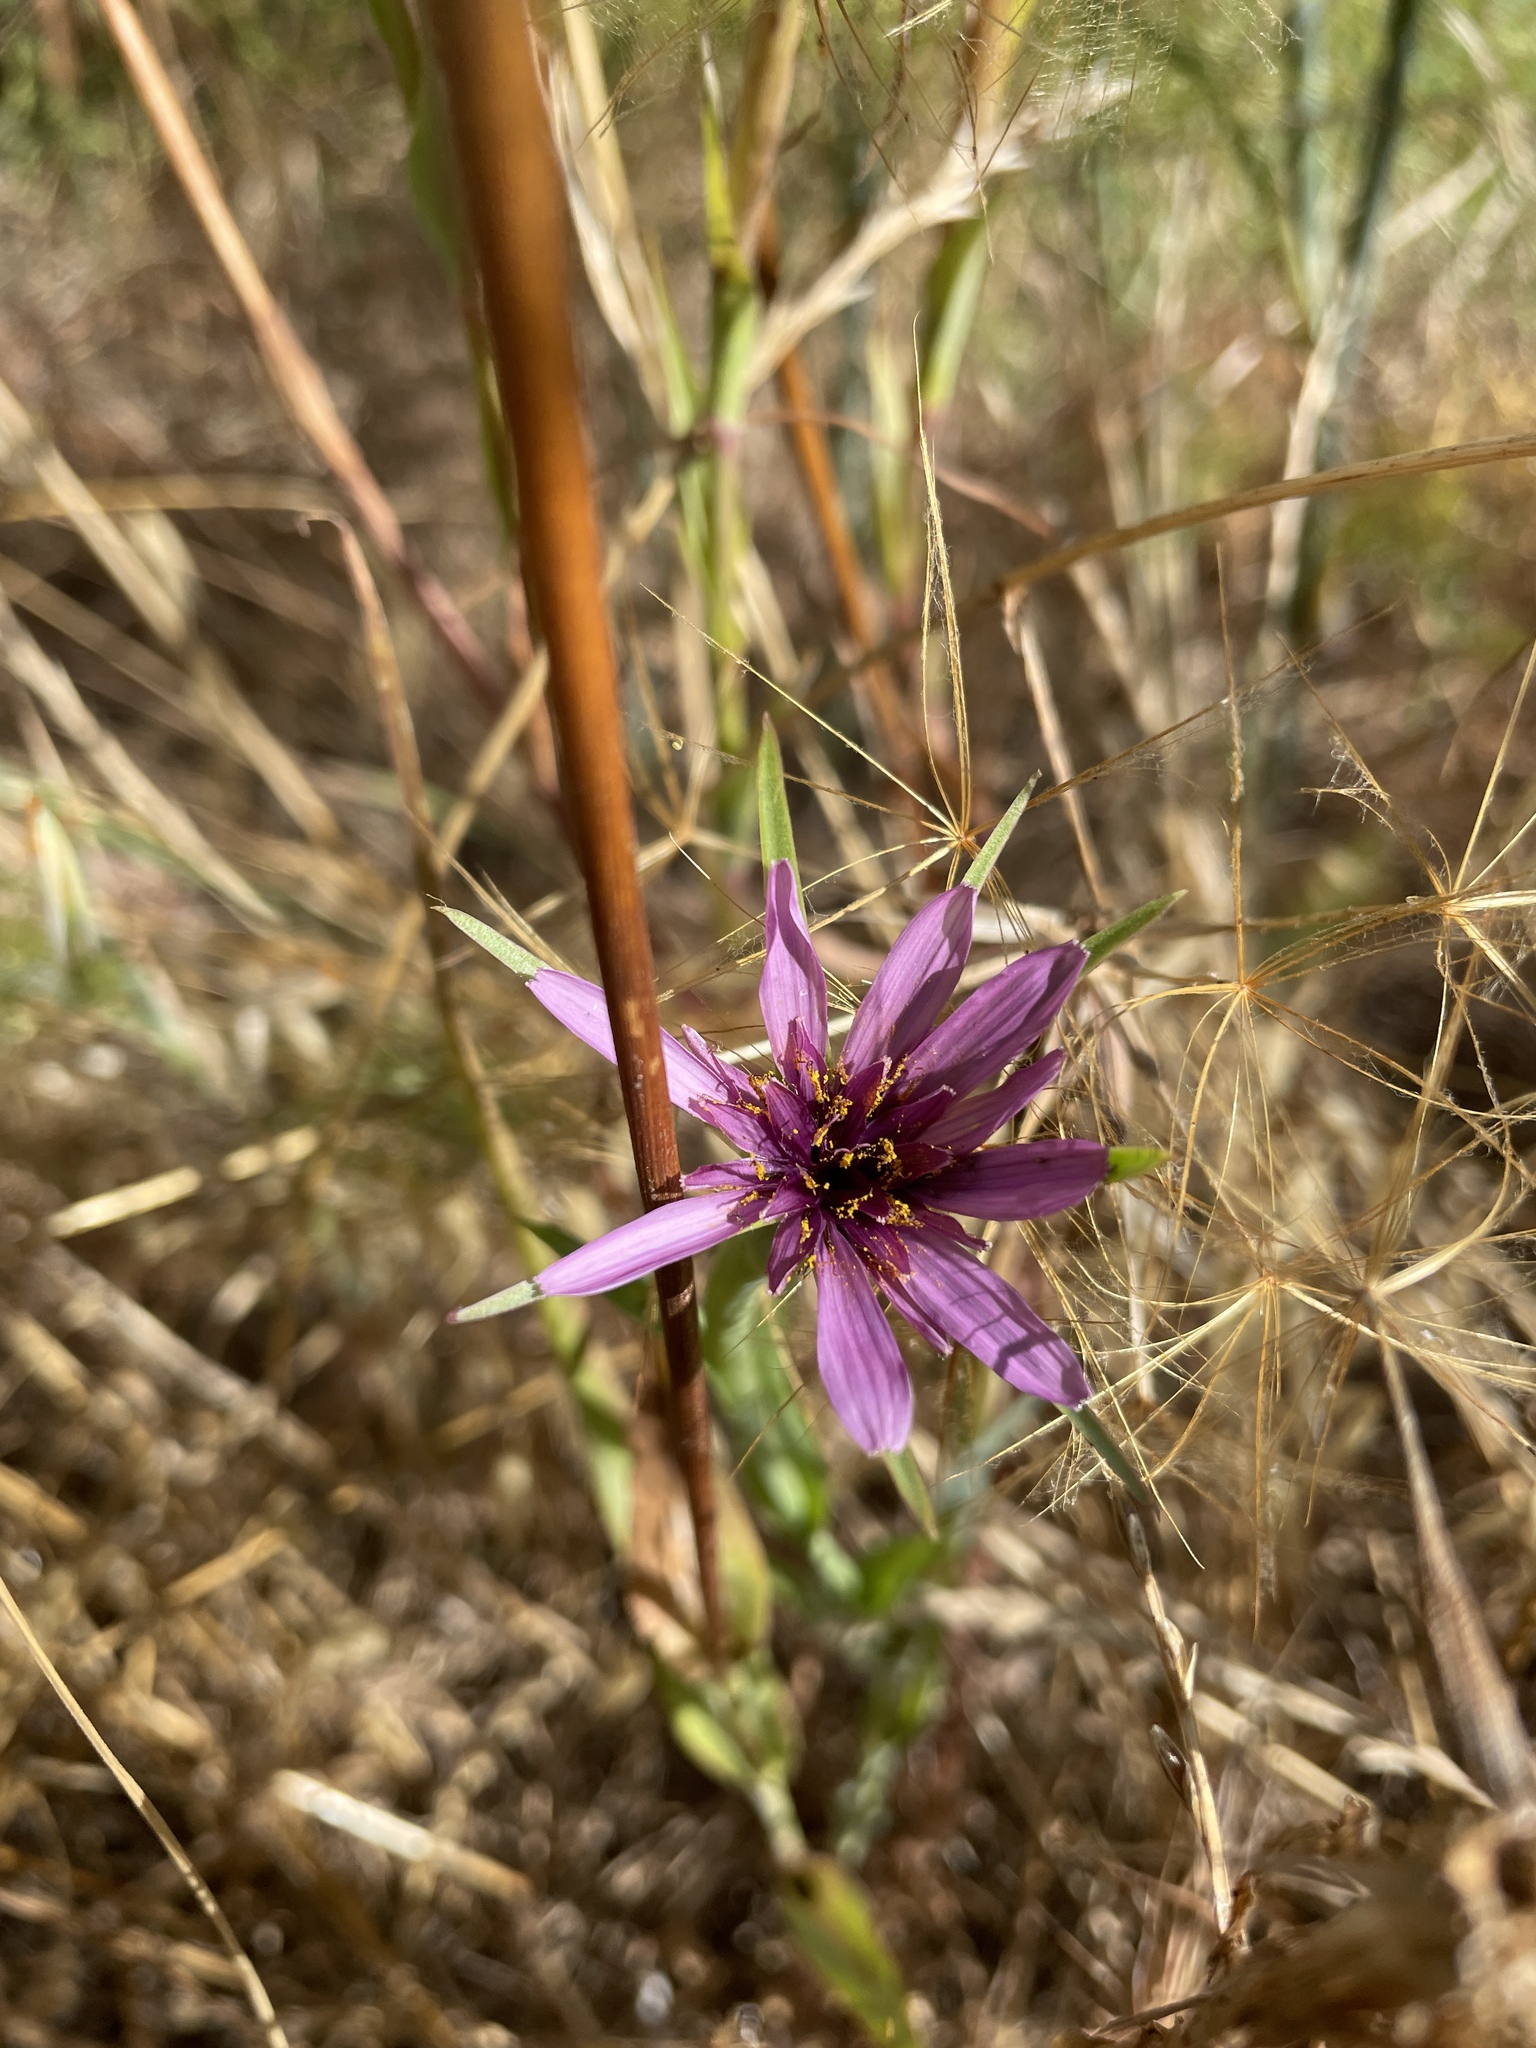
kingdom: Plantae
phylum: Tracheophyta
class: Magnoliopsida
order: Asterales
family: Asteraceae
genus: Tragopogon
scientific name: Tragopogon porrifolius
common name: Salsify
